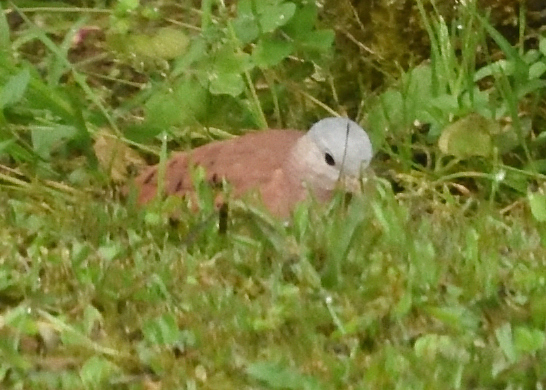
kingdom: Animalia
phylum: Chordata
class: Aves
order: Columbiformes
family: Columbidae
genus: Columbina
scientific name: Columbina talpacoti
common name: Ruddy ground dove
